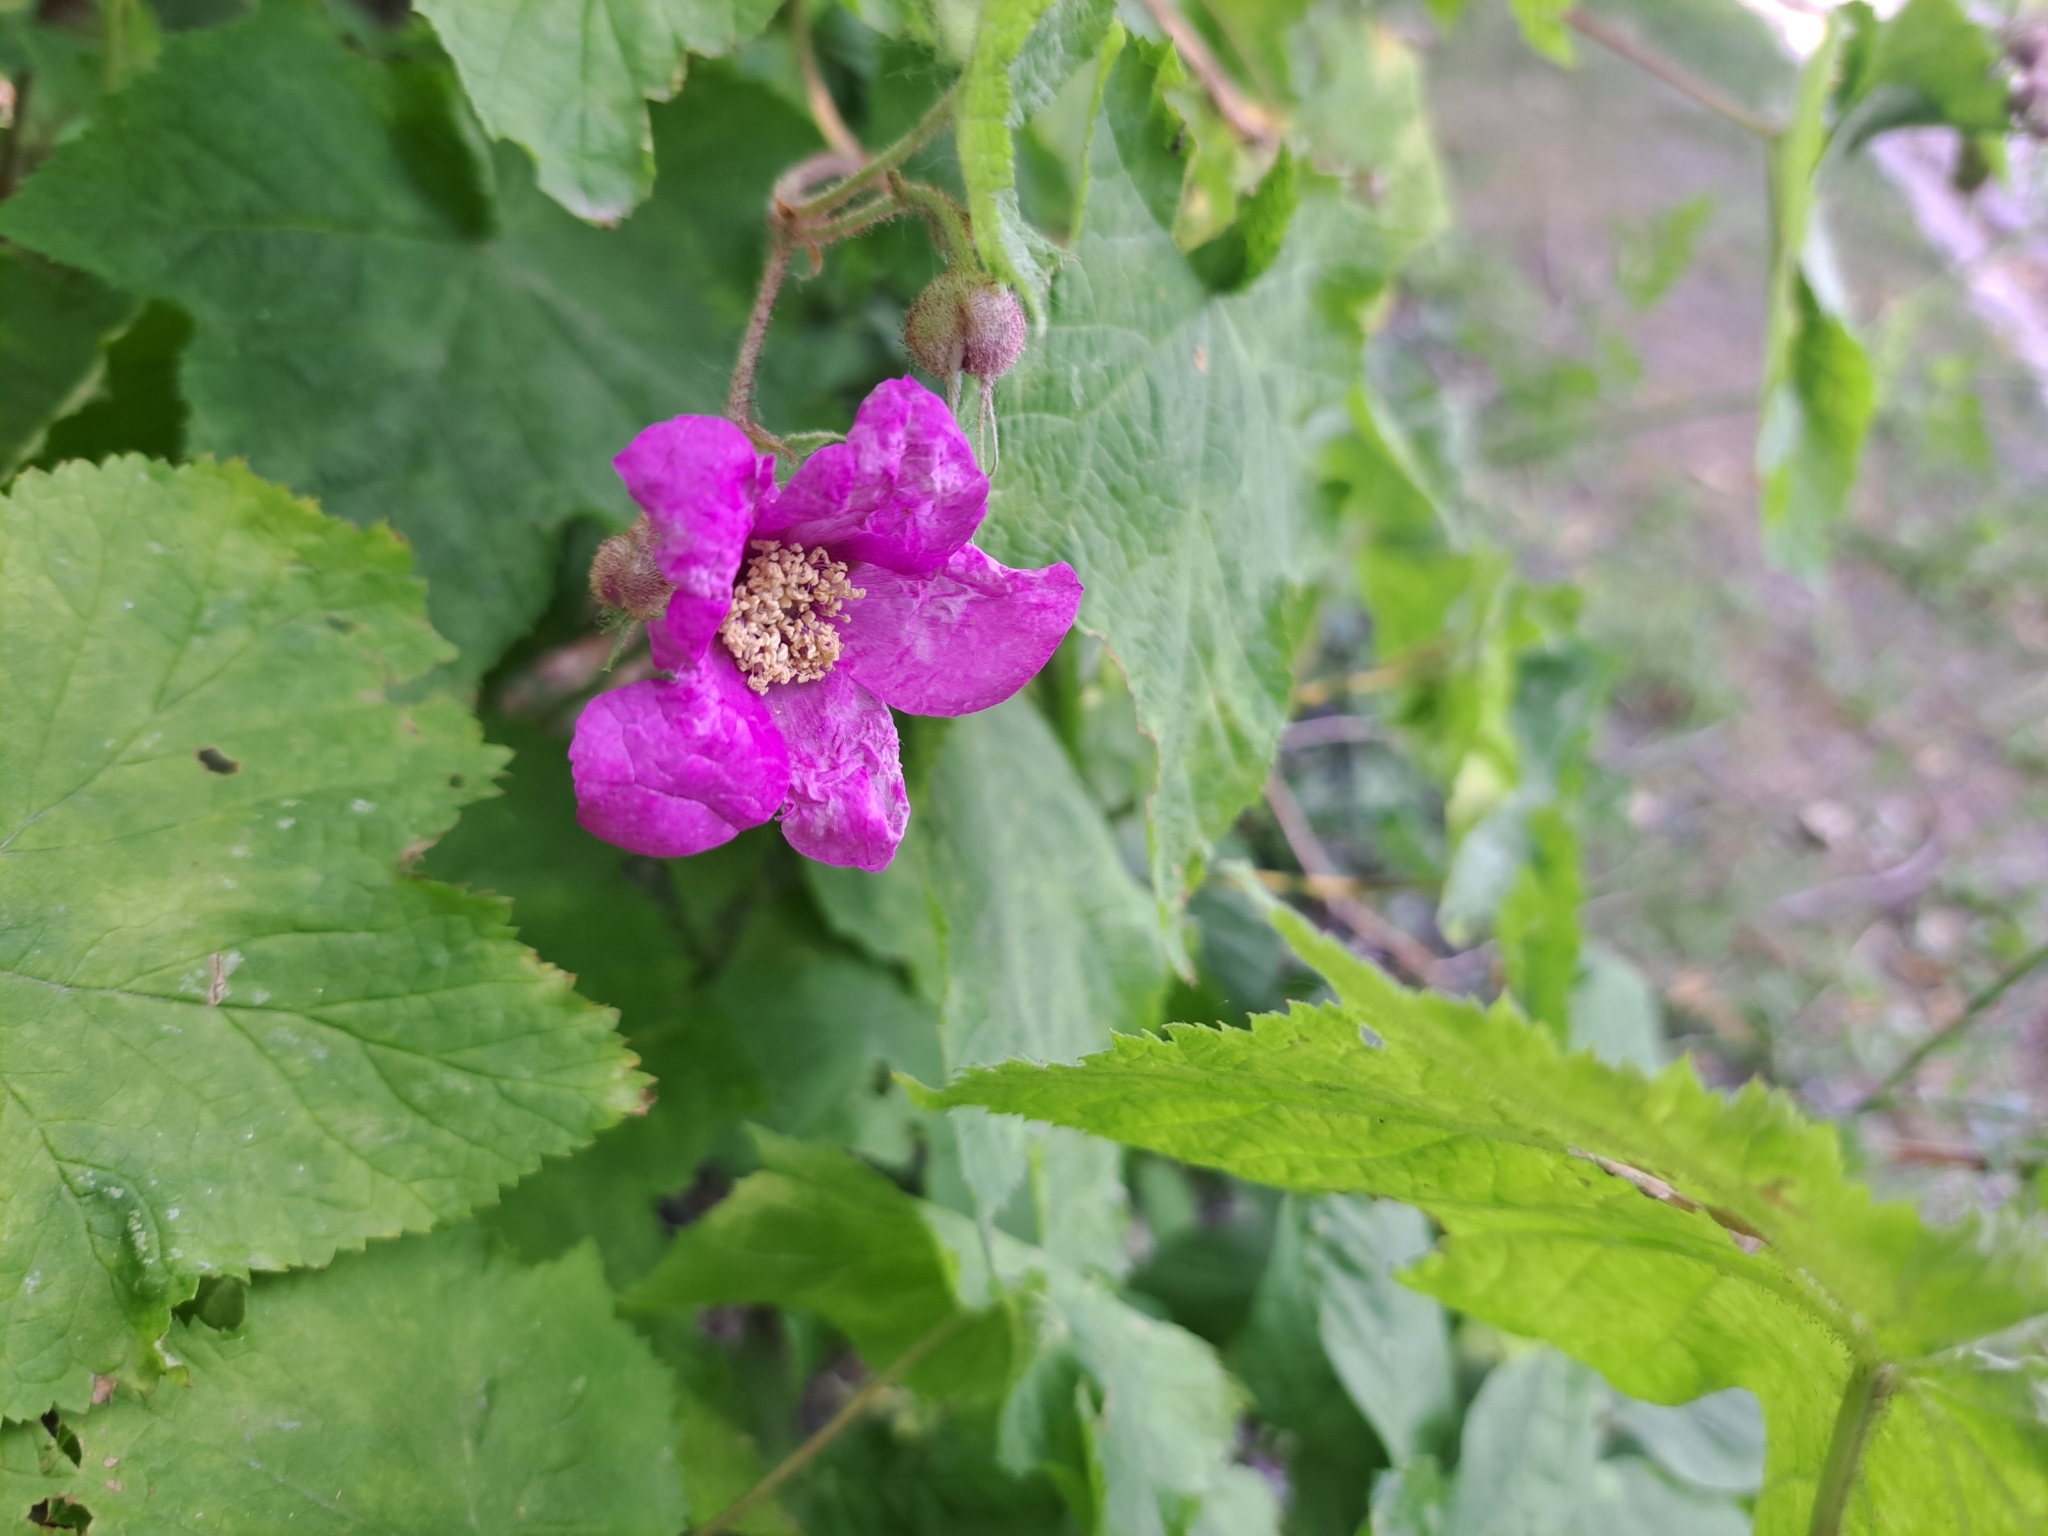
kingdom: Plantae
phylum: Tracheophyta
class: Magnoliopsida
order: Rosales
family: Rosaceae
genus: Rubus
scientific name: Rubus odoratus
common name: Purple-flowered raspberry
